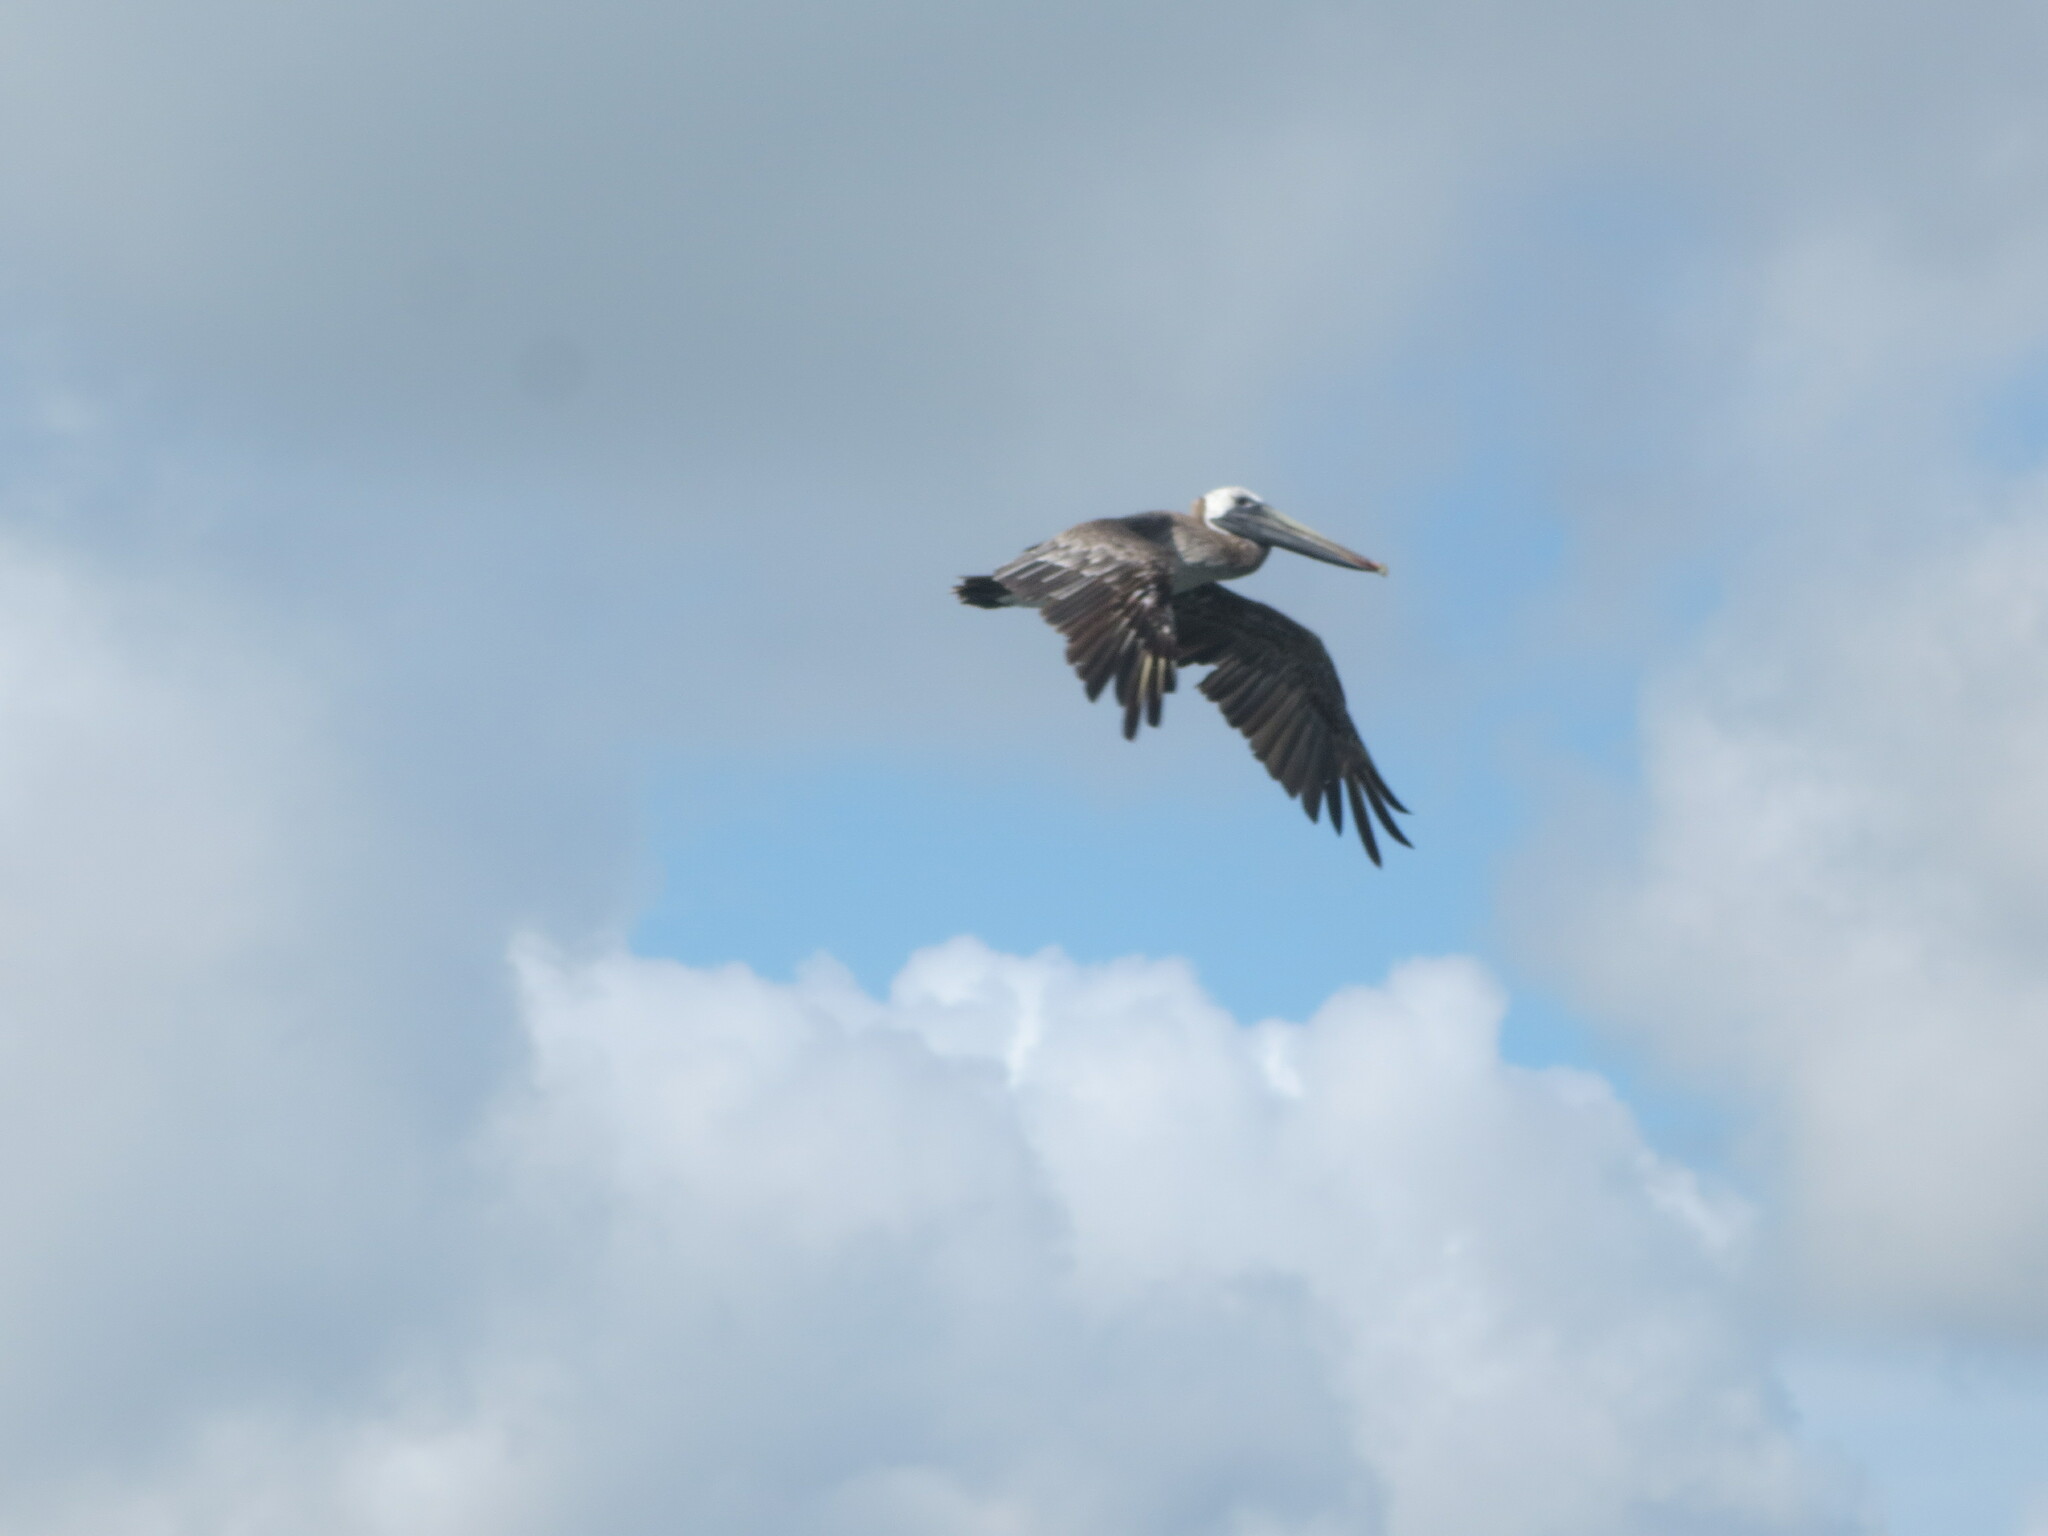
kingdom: Animalia
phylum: Chordata
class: Aves
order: Pelecaniformes
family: Pelecanidae
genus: Pelecanus
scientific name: Pelecanus occidentalis
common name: Brown pelican
